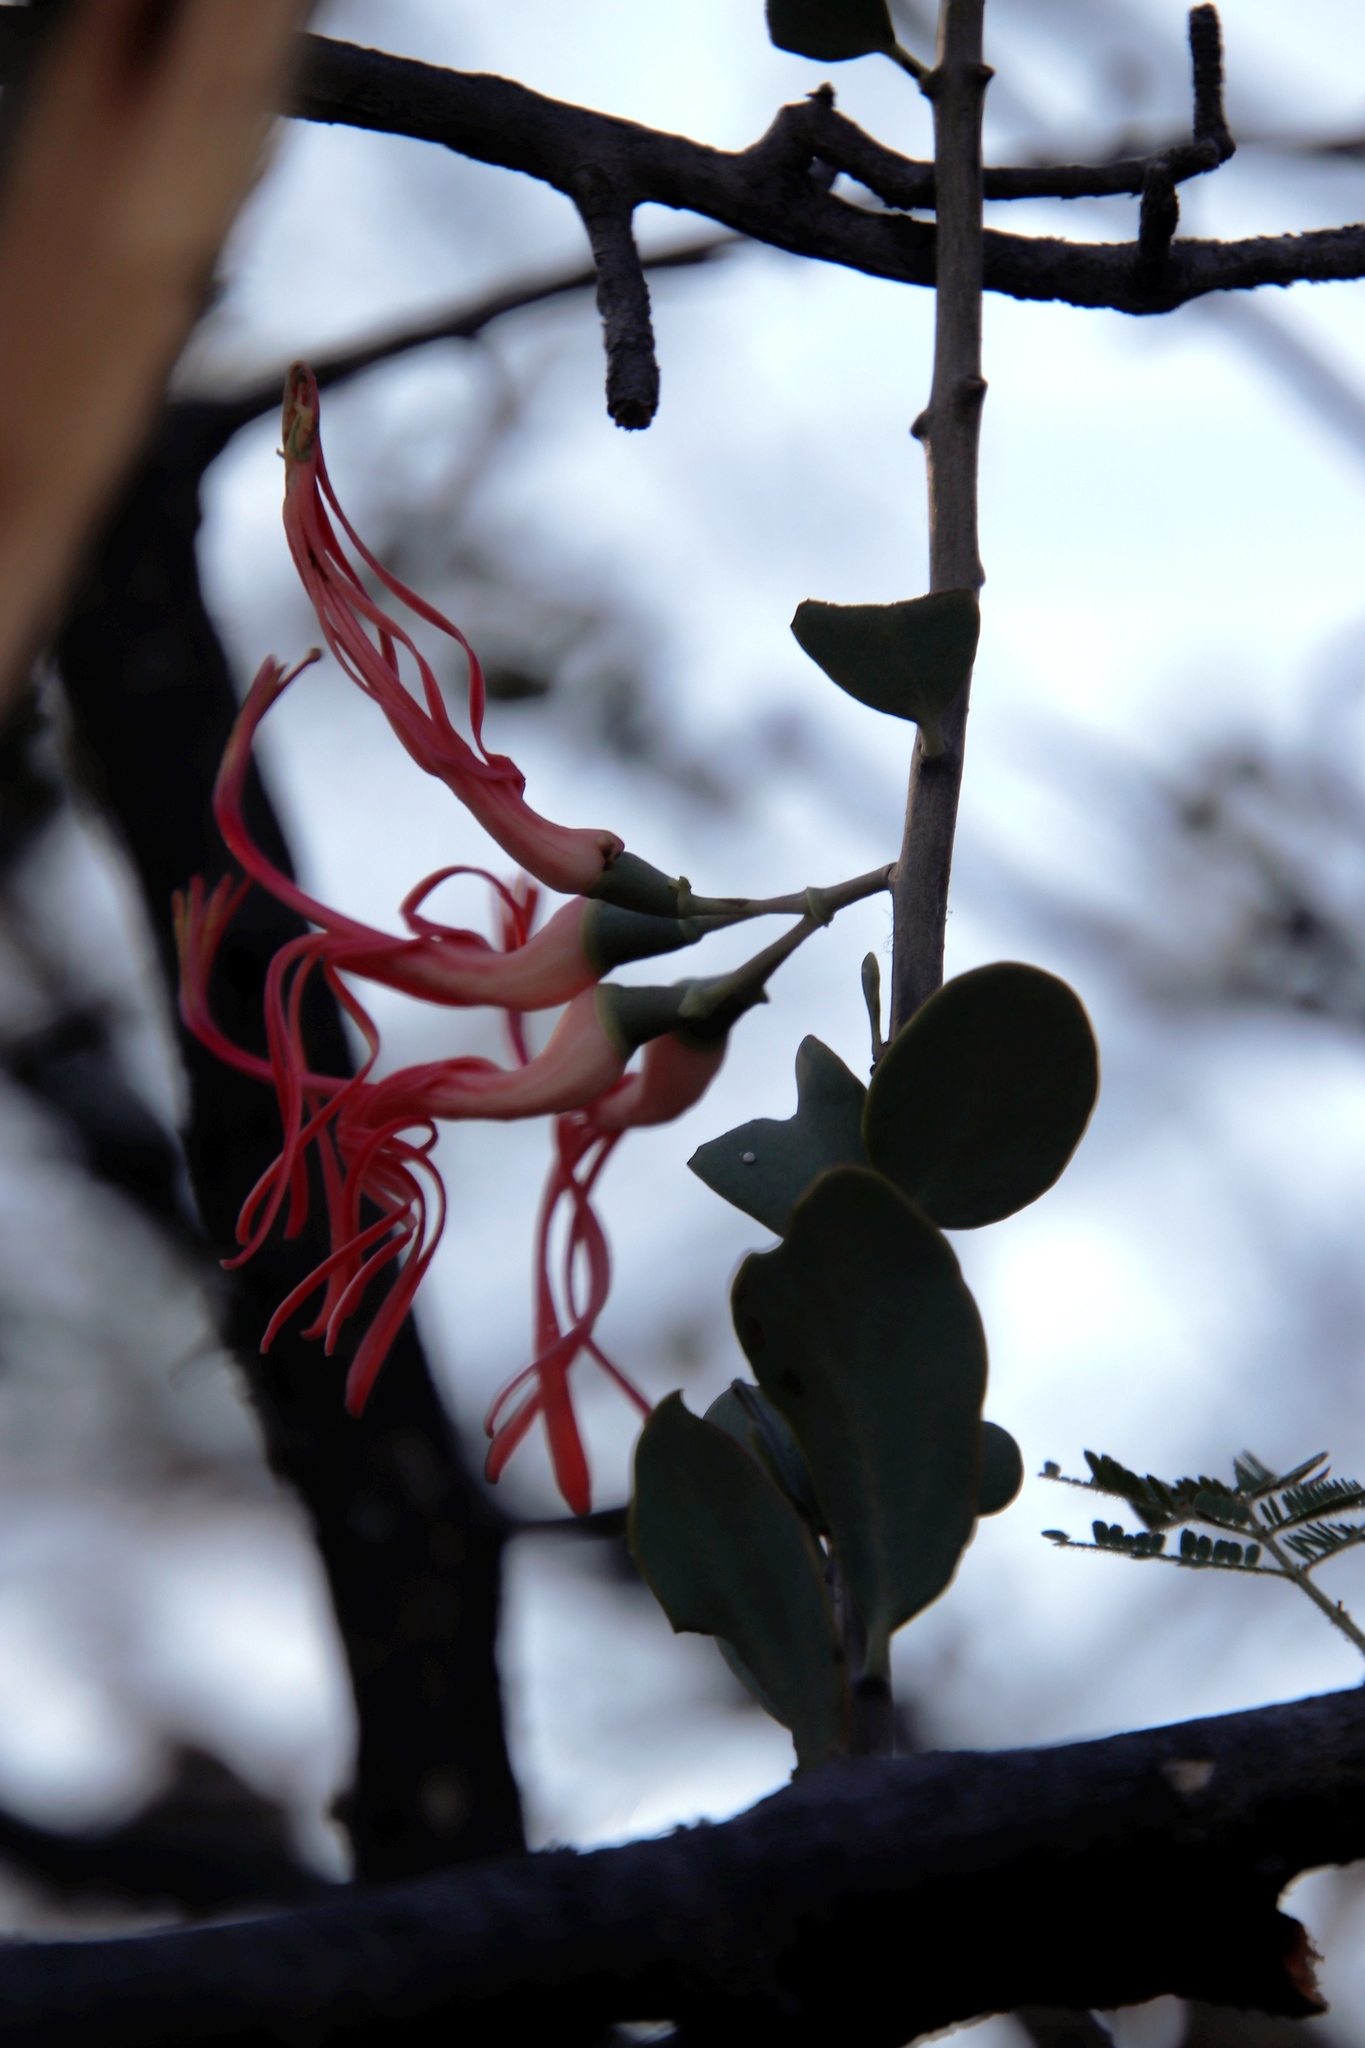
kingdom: Plantae
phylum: Tracheophyta
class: Magnoliopsida
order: Santalales
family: Loranthaceae
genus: Plicosepalus
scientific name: Plicosepalus kalachariensis
